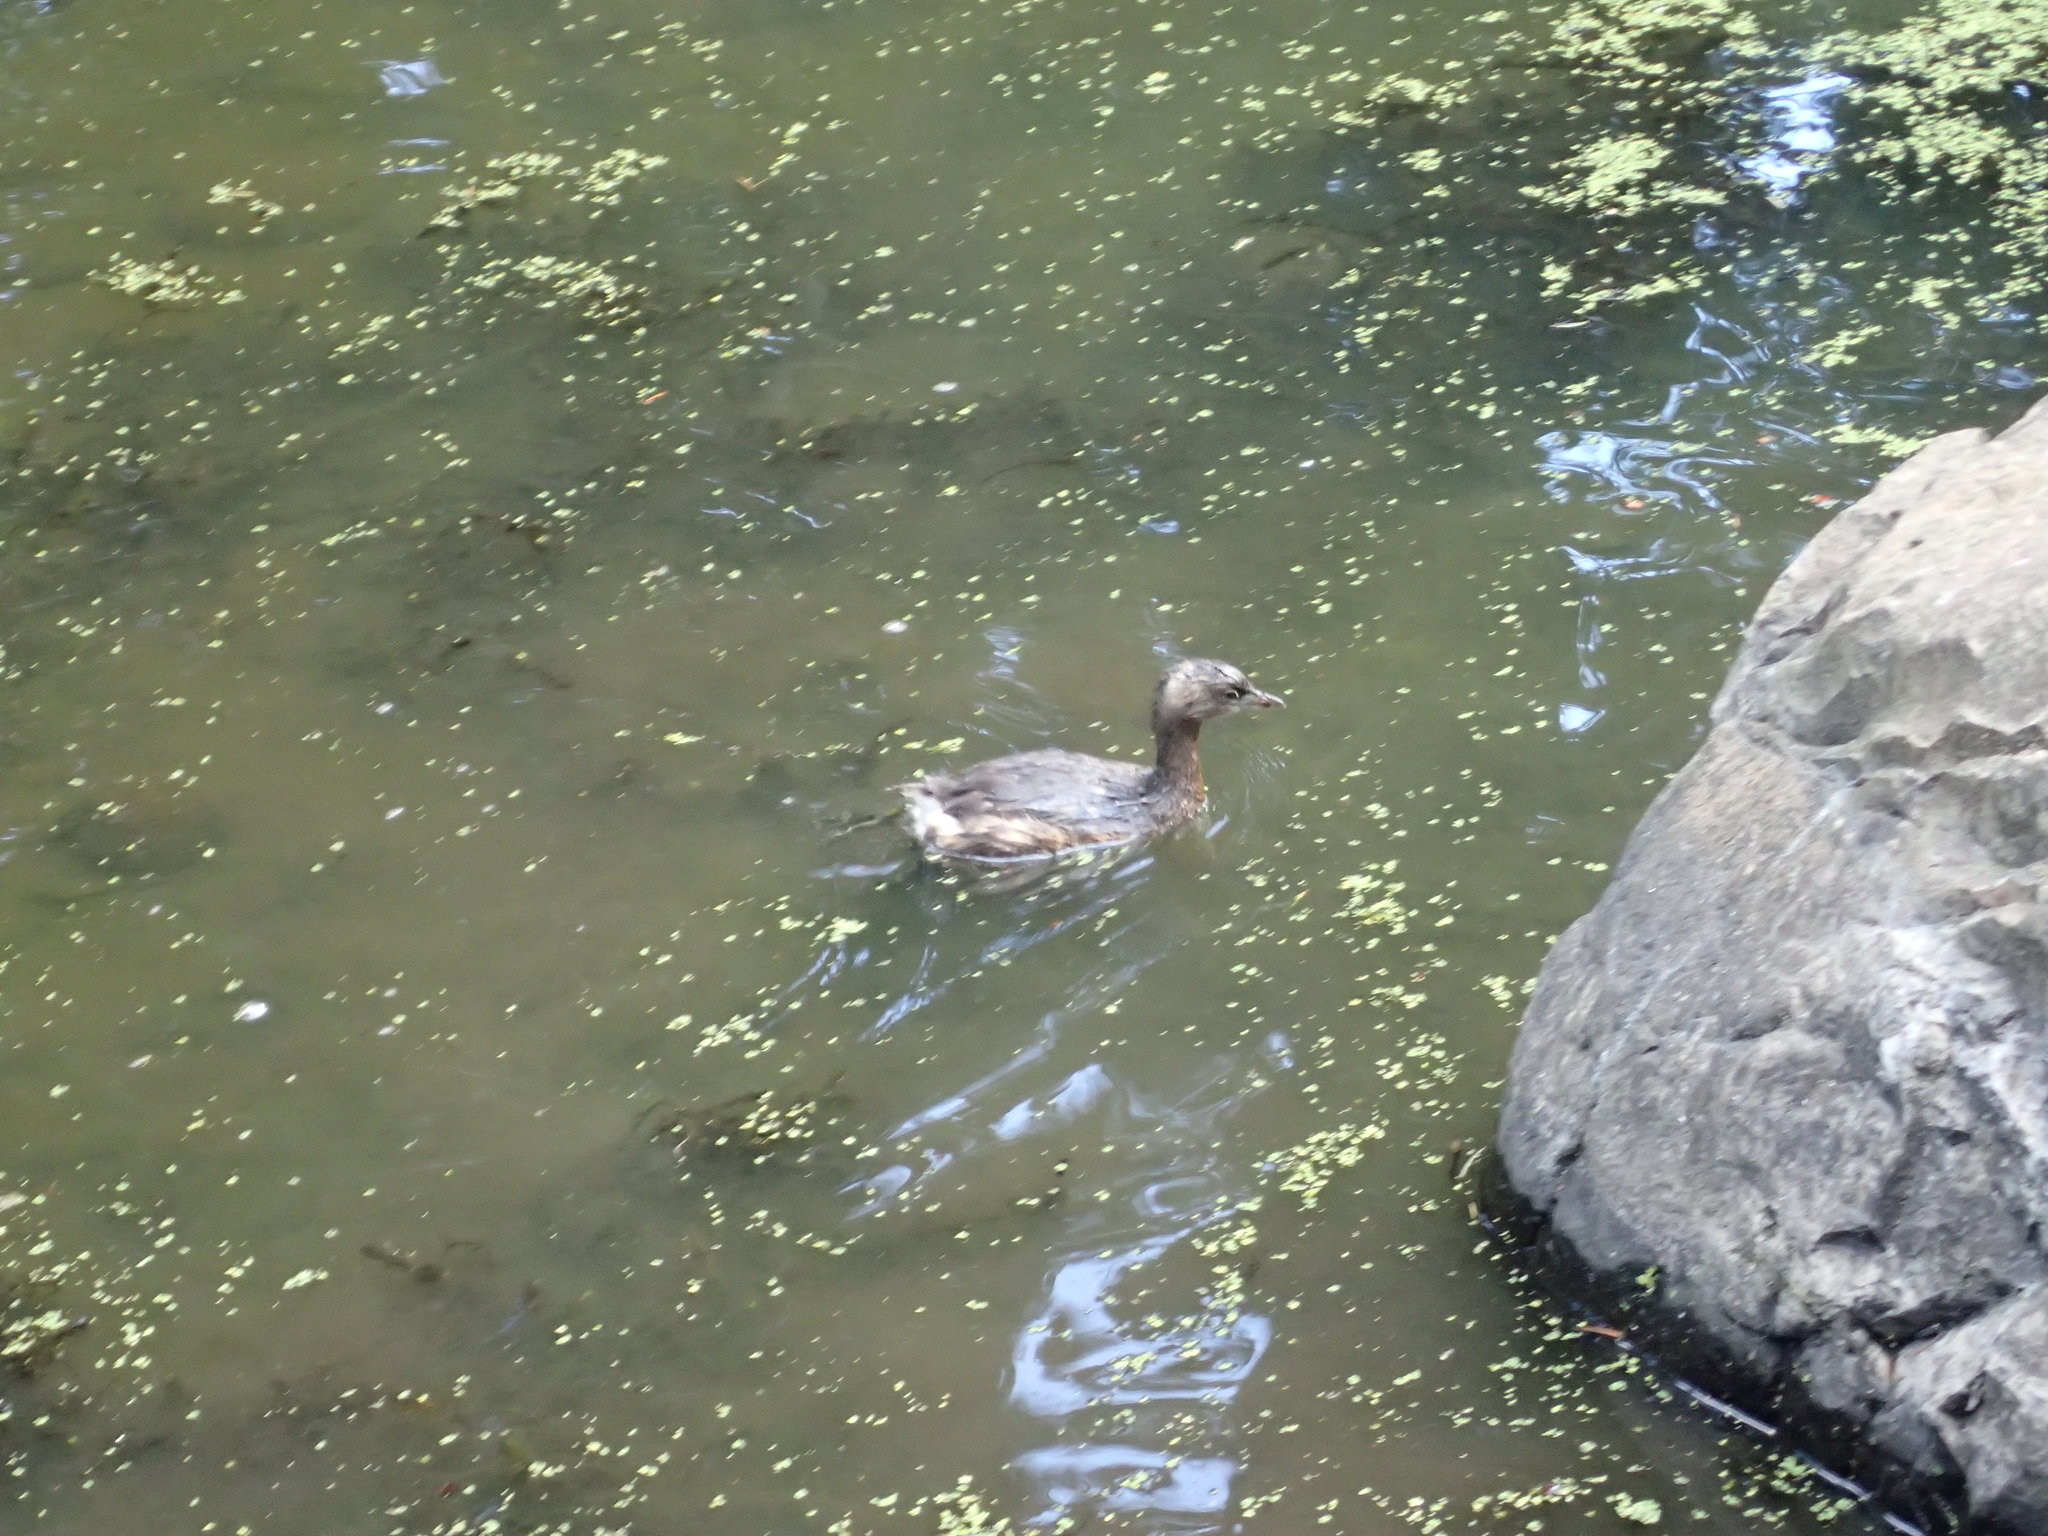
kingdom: Animalia
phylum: Chordata
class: Aves
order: Podicipediformes
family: Podicipedidae
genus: Podilymbus
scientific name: Podilymbus podiceps
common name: Pied-billed grebe
